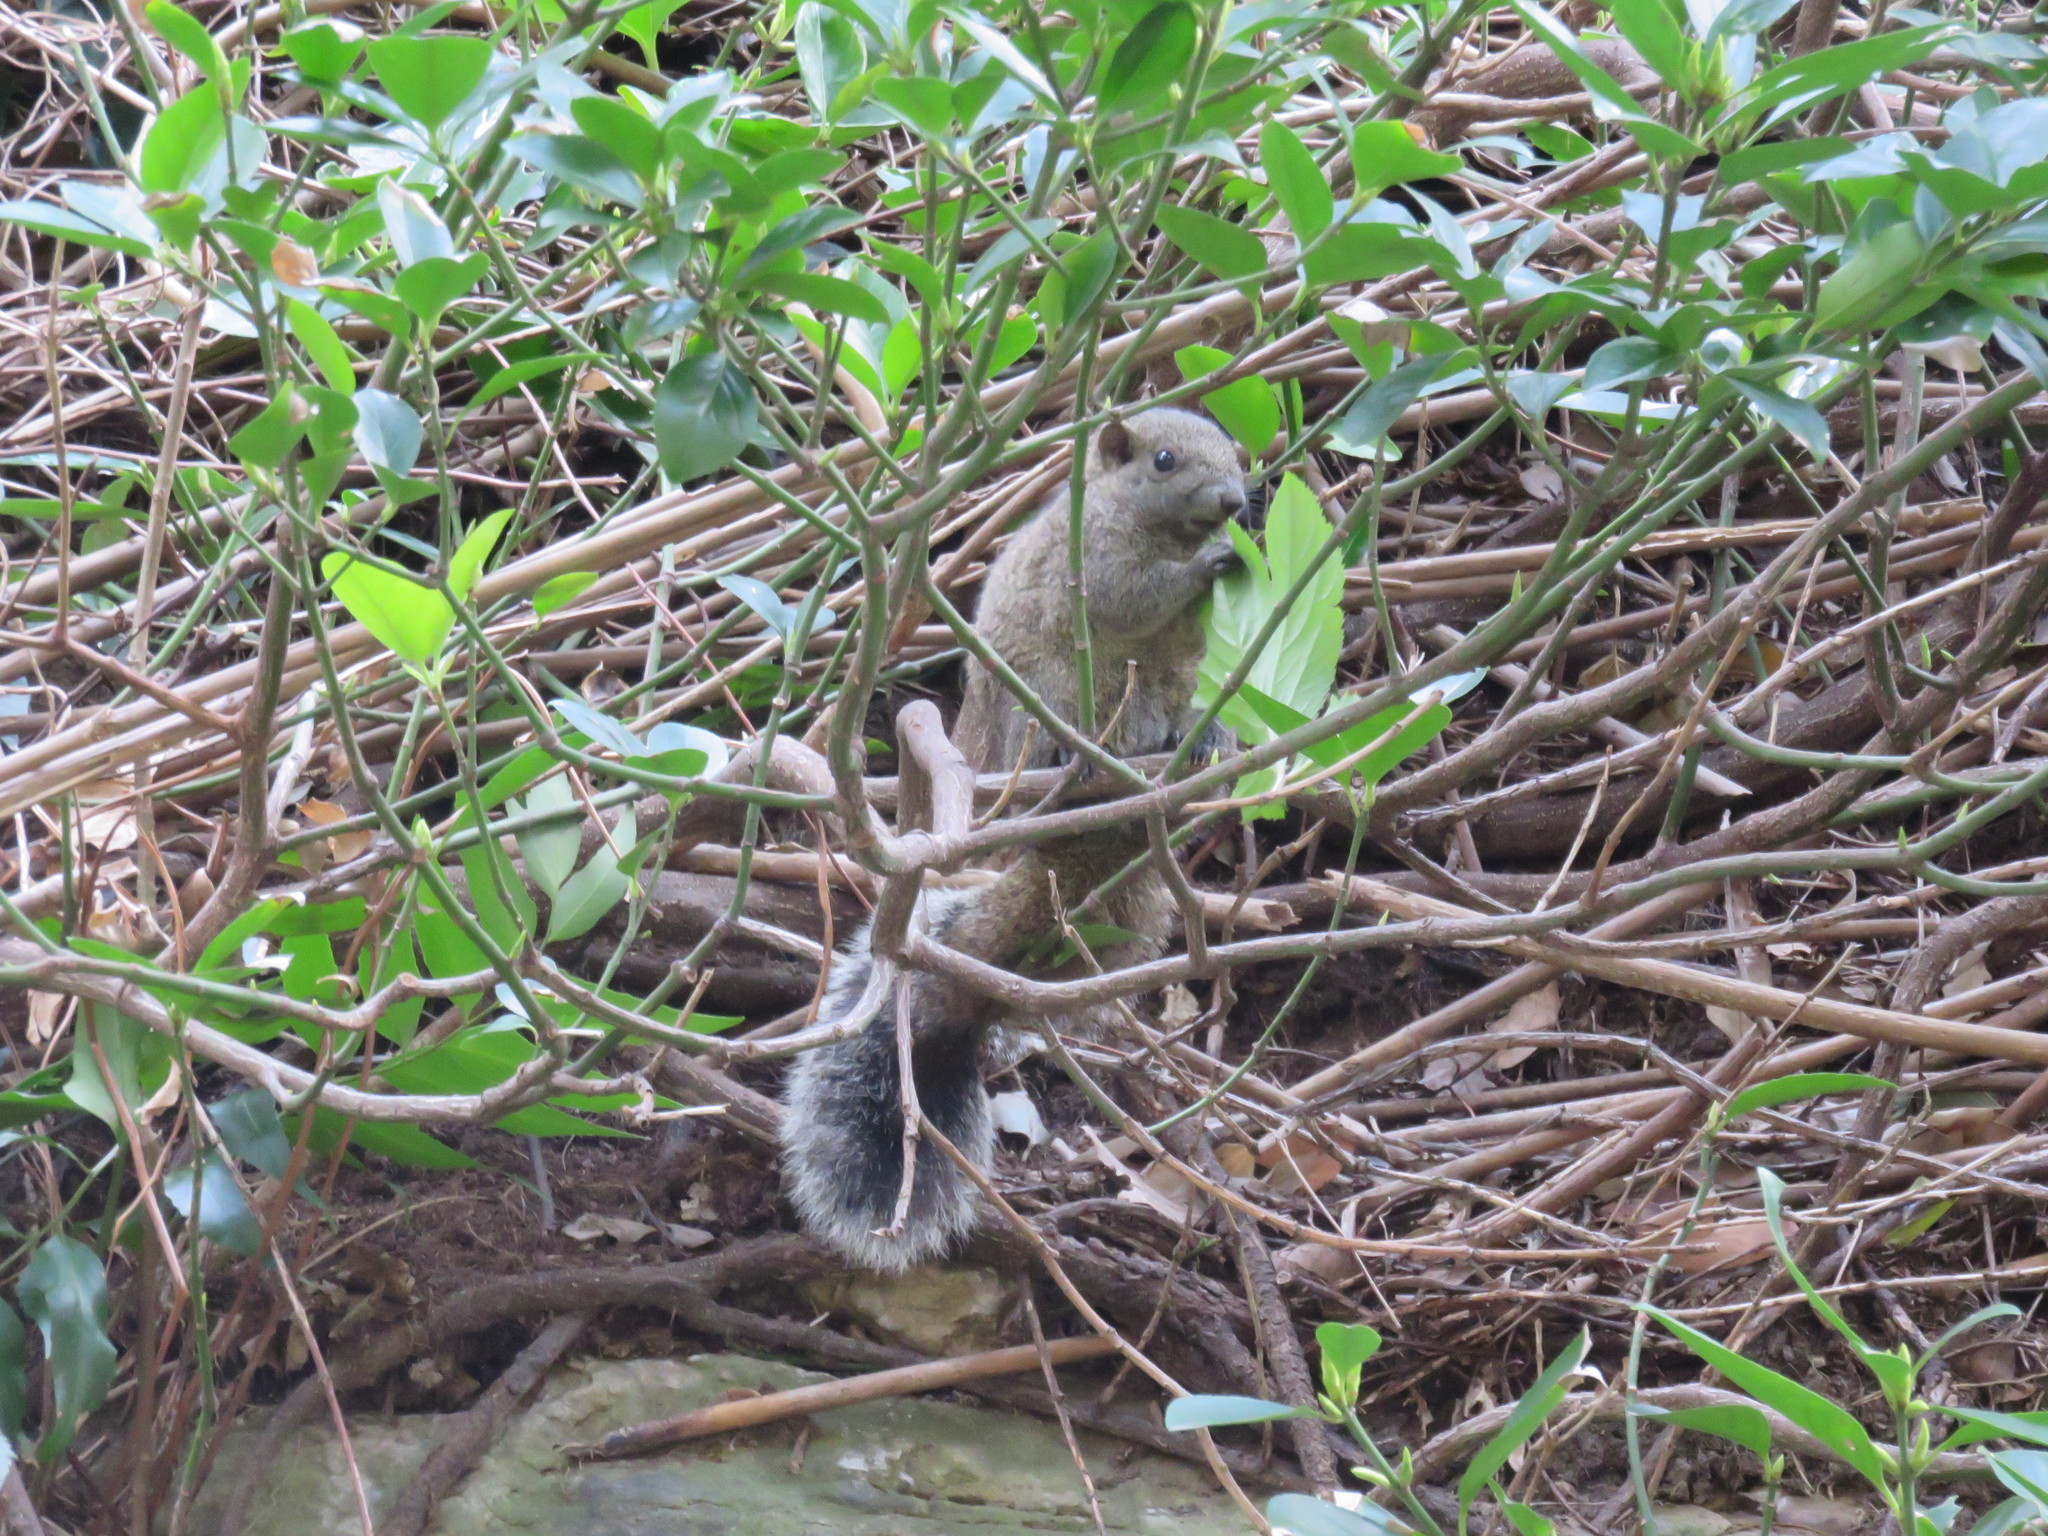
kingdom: Animalia
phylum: Chordata
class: Mammalia
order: Rodentia
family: Sciuridae
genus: Callosciurus
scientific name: Callosciurus erythraeus
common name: Pallas's squirrel
